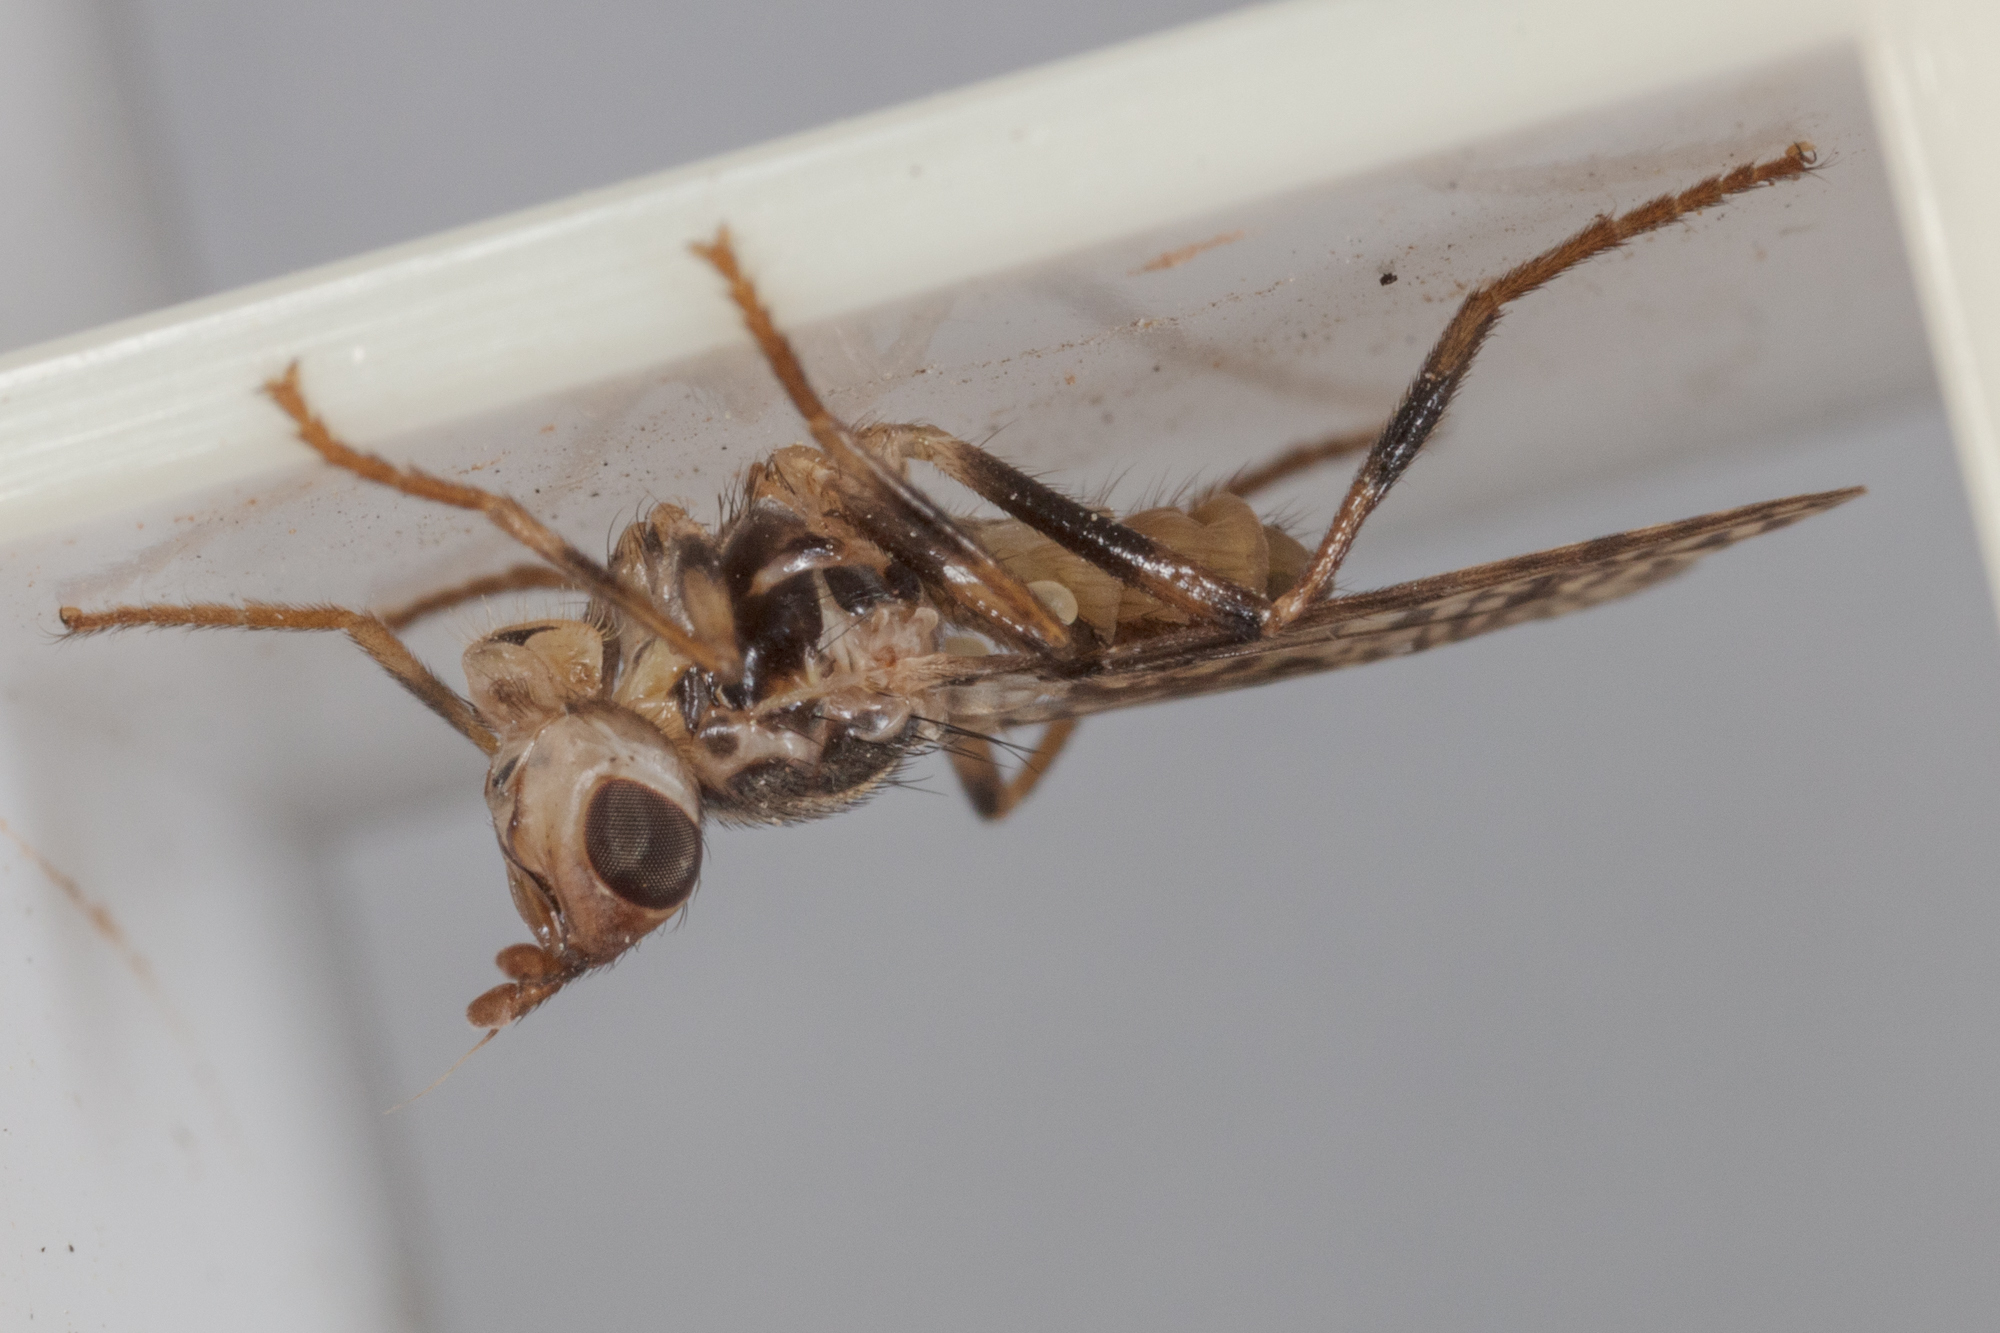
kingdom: Animalia
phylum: Arthropoda
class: Insecta
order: Diptera
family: Pyrgotidae
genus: Boreothrinax
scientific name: Boreothrinax
